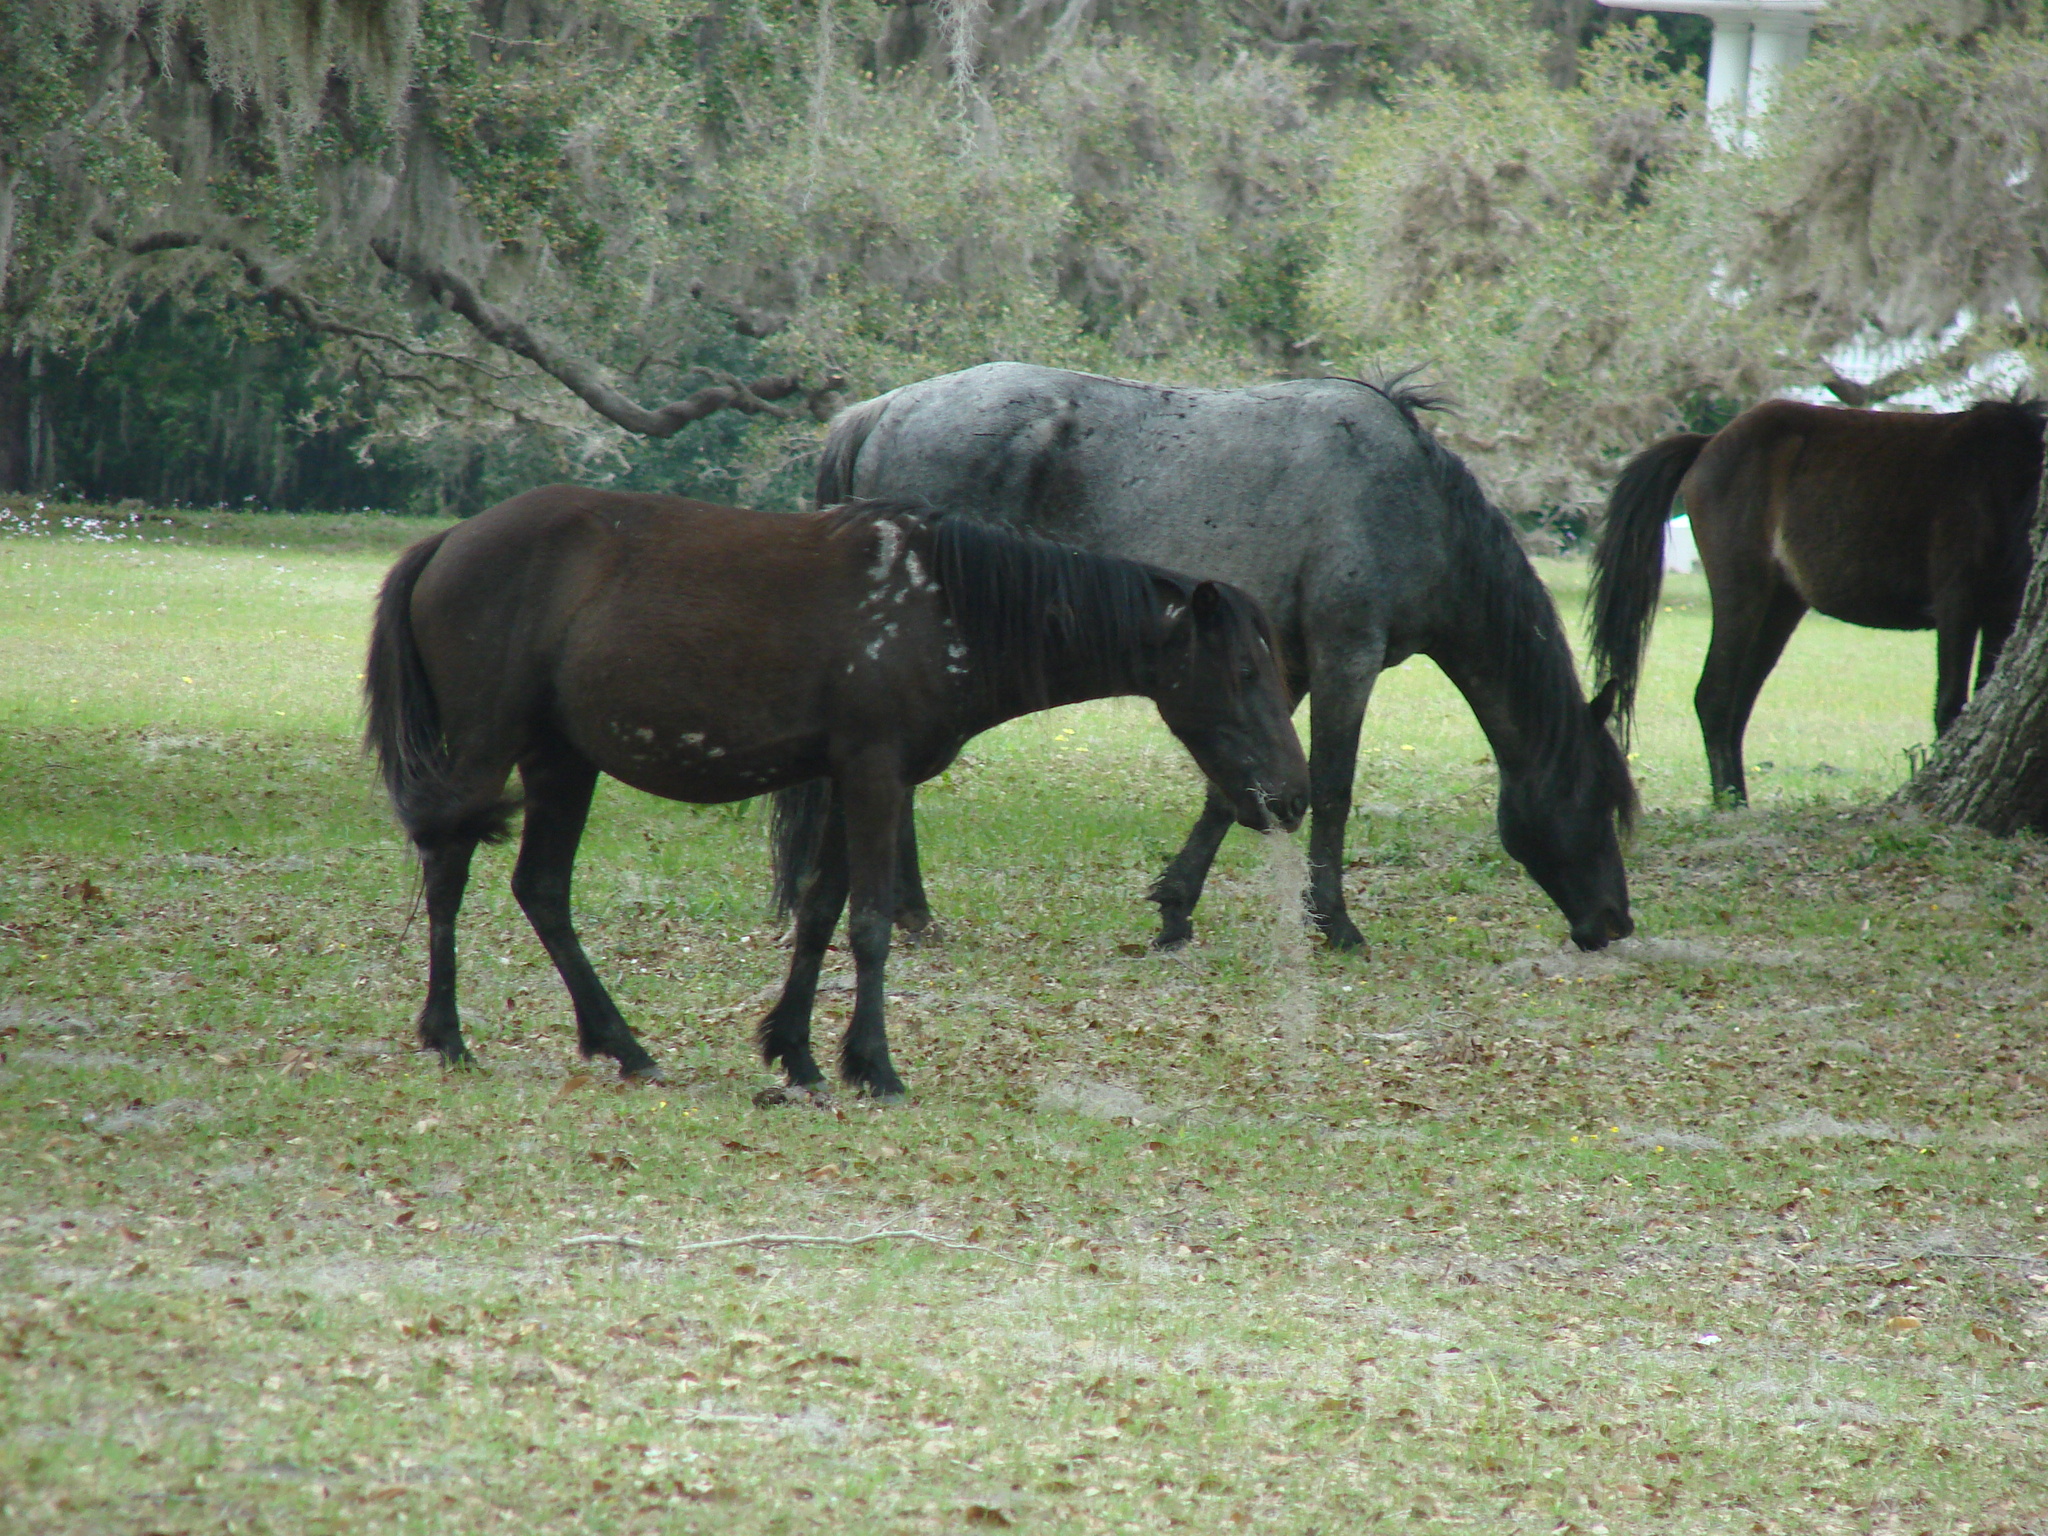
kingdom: Animalia
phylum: Chordata
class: Mammalia
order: Perissodactyla
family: Equidae
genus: Equus
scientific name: Equus caballus
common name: Horse
